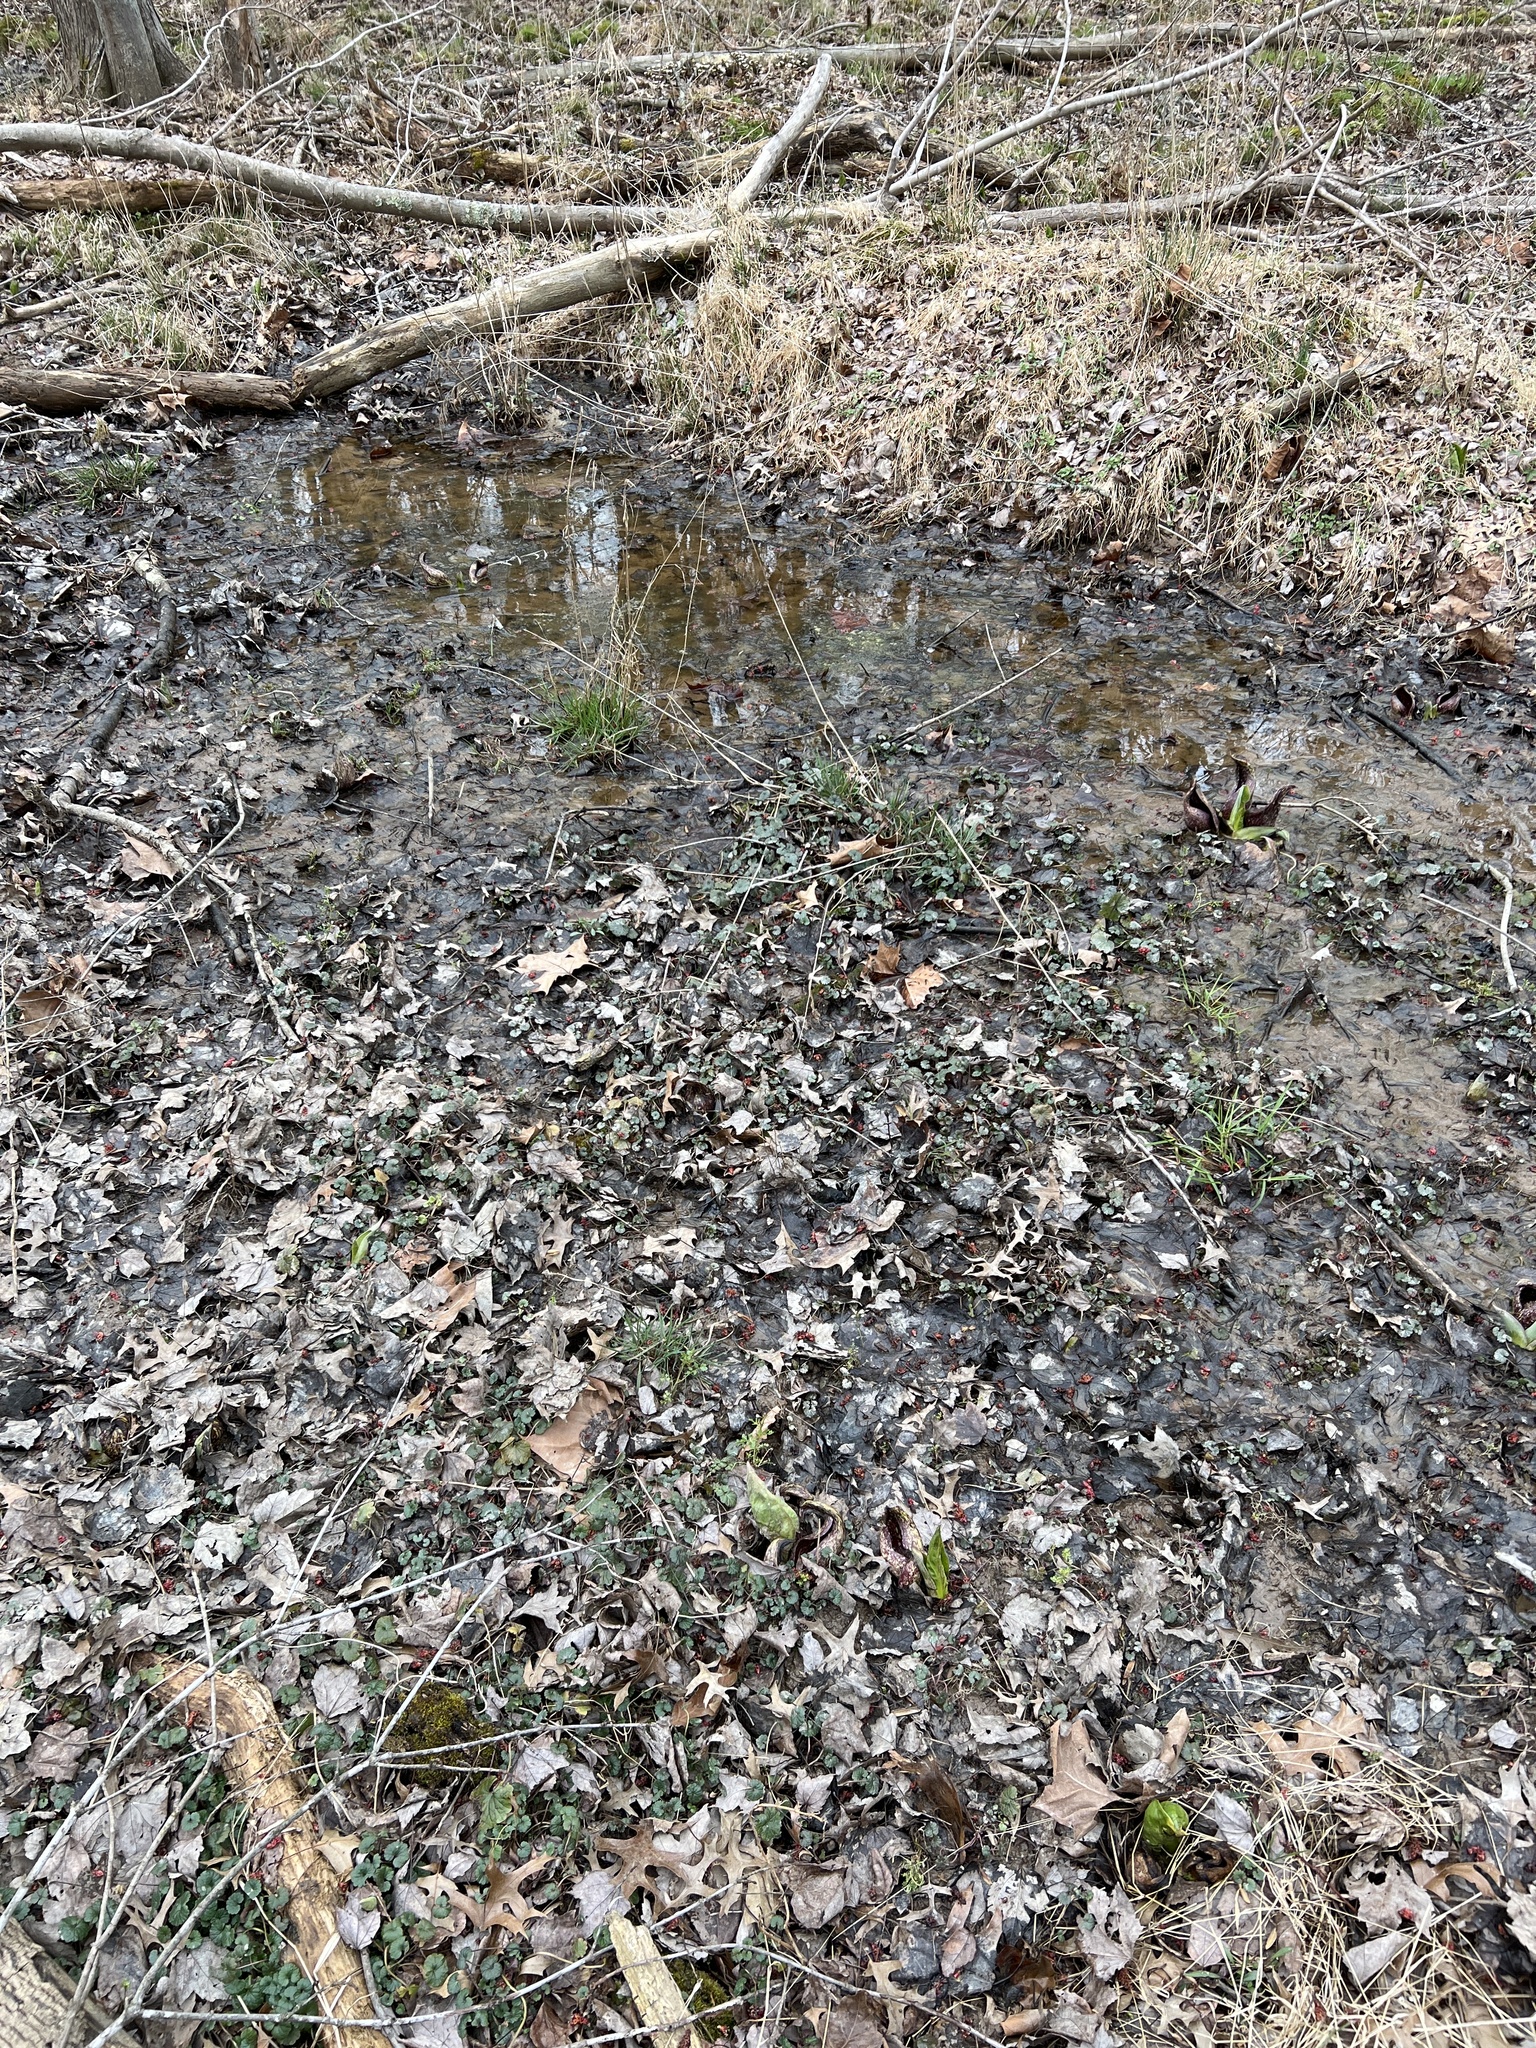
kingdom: Plantae
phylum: Tracheophyta
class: Magnoliopsida
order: Lamiales
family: Lamiaceae
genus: Glechoma
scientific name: Glechoma hederacea
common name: Ground ivy
